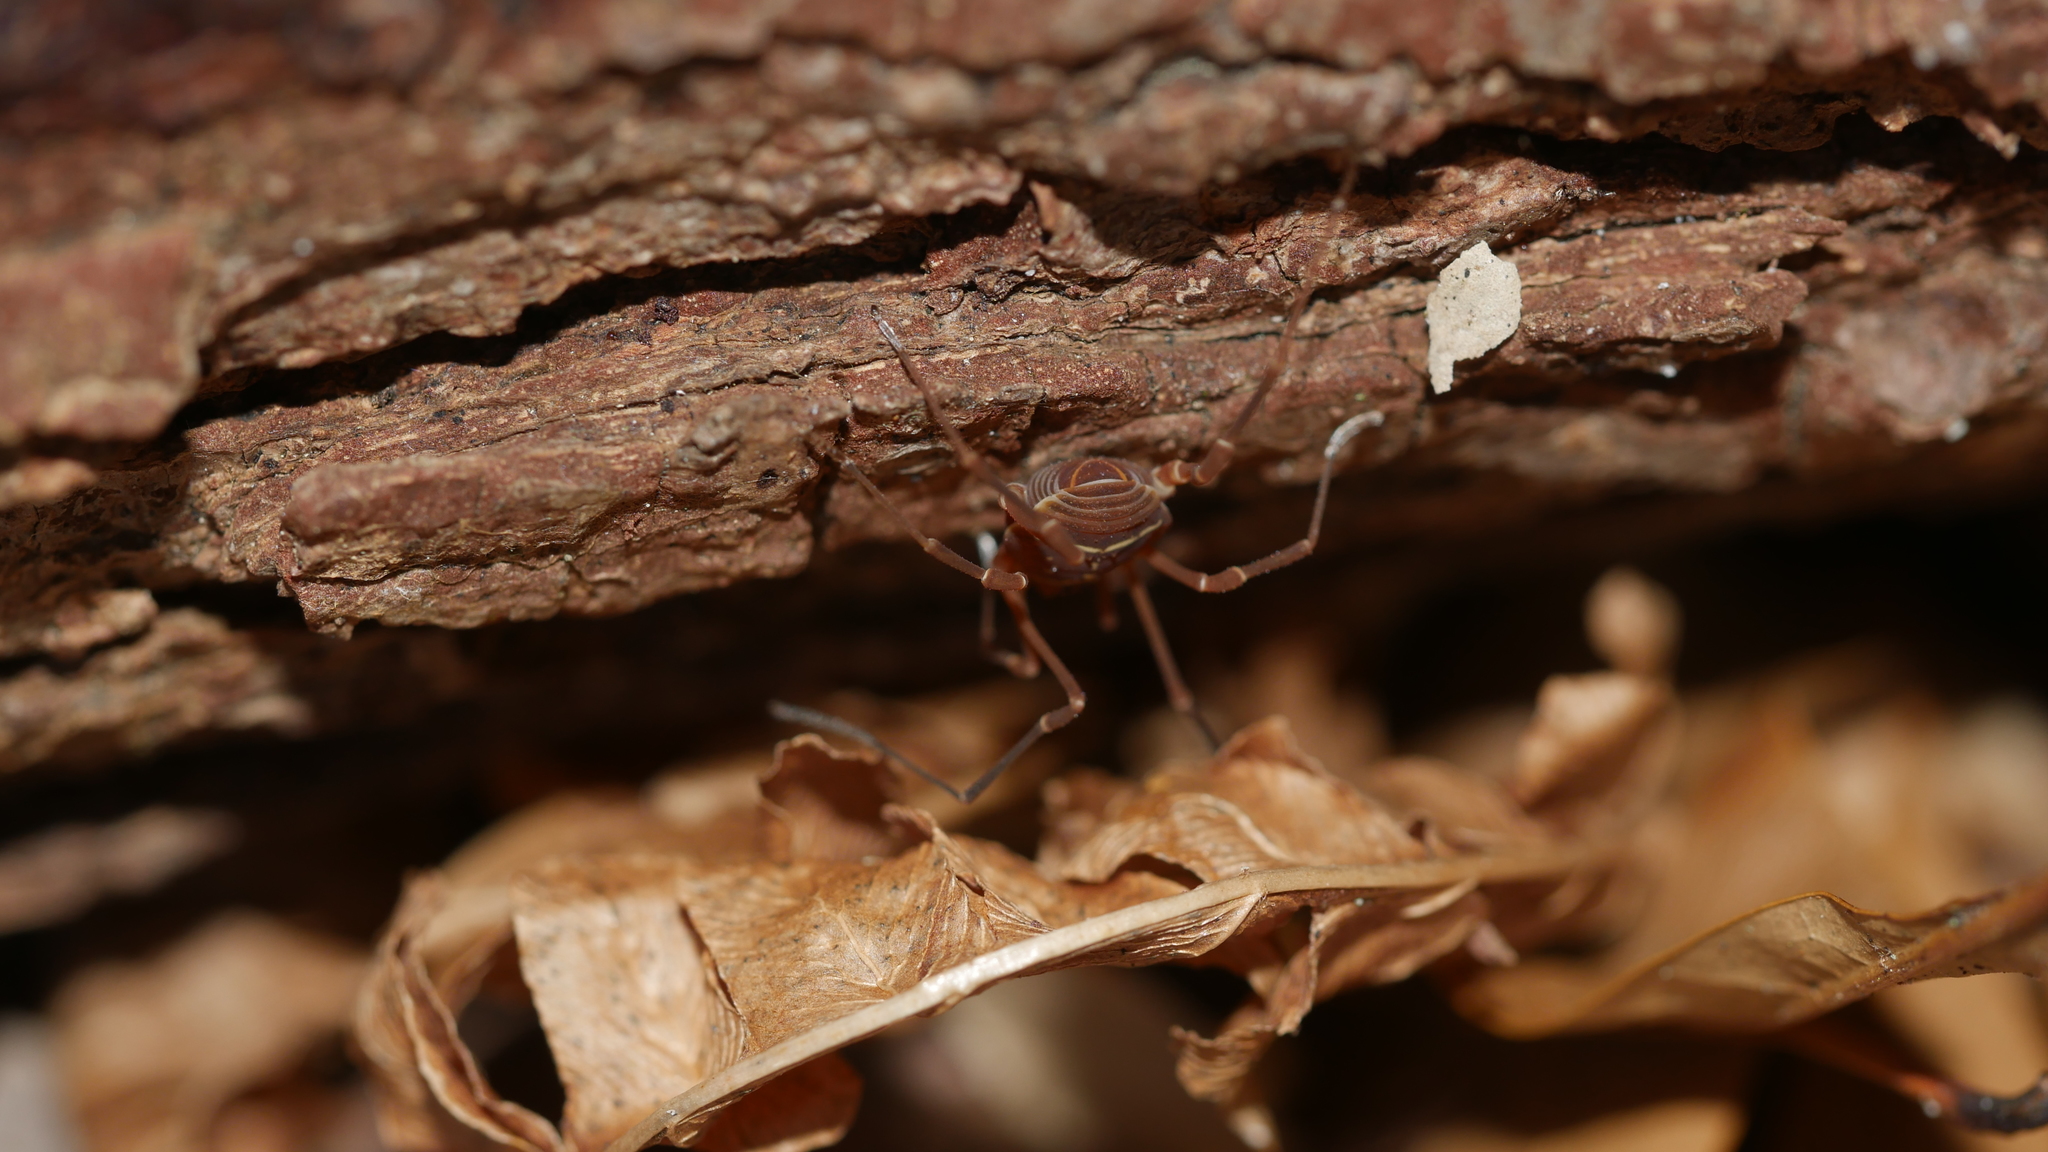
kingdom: Animalia
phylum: Arthropoda
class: Arachnida
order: Opiliones
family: Cosmetidae
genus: Libitioides
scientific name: Libitioides sayi
